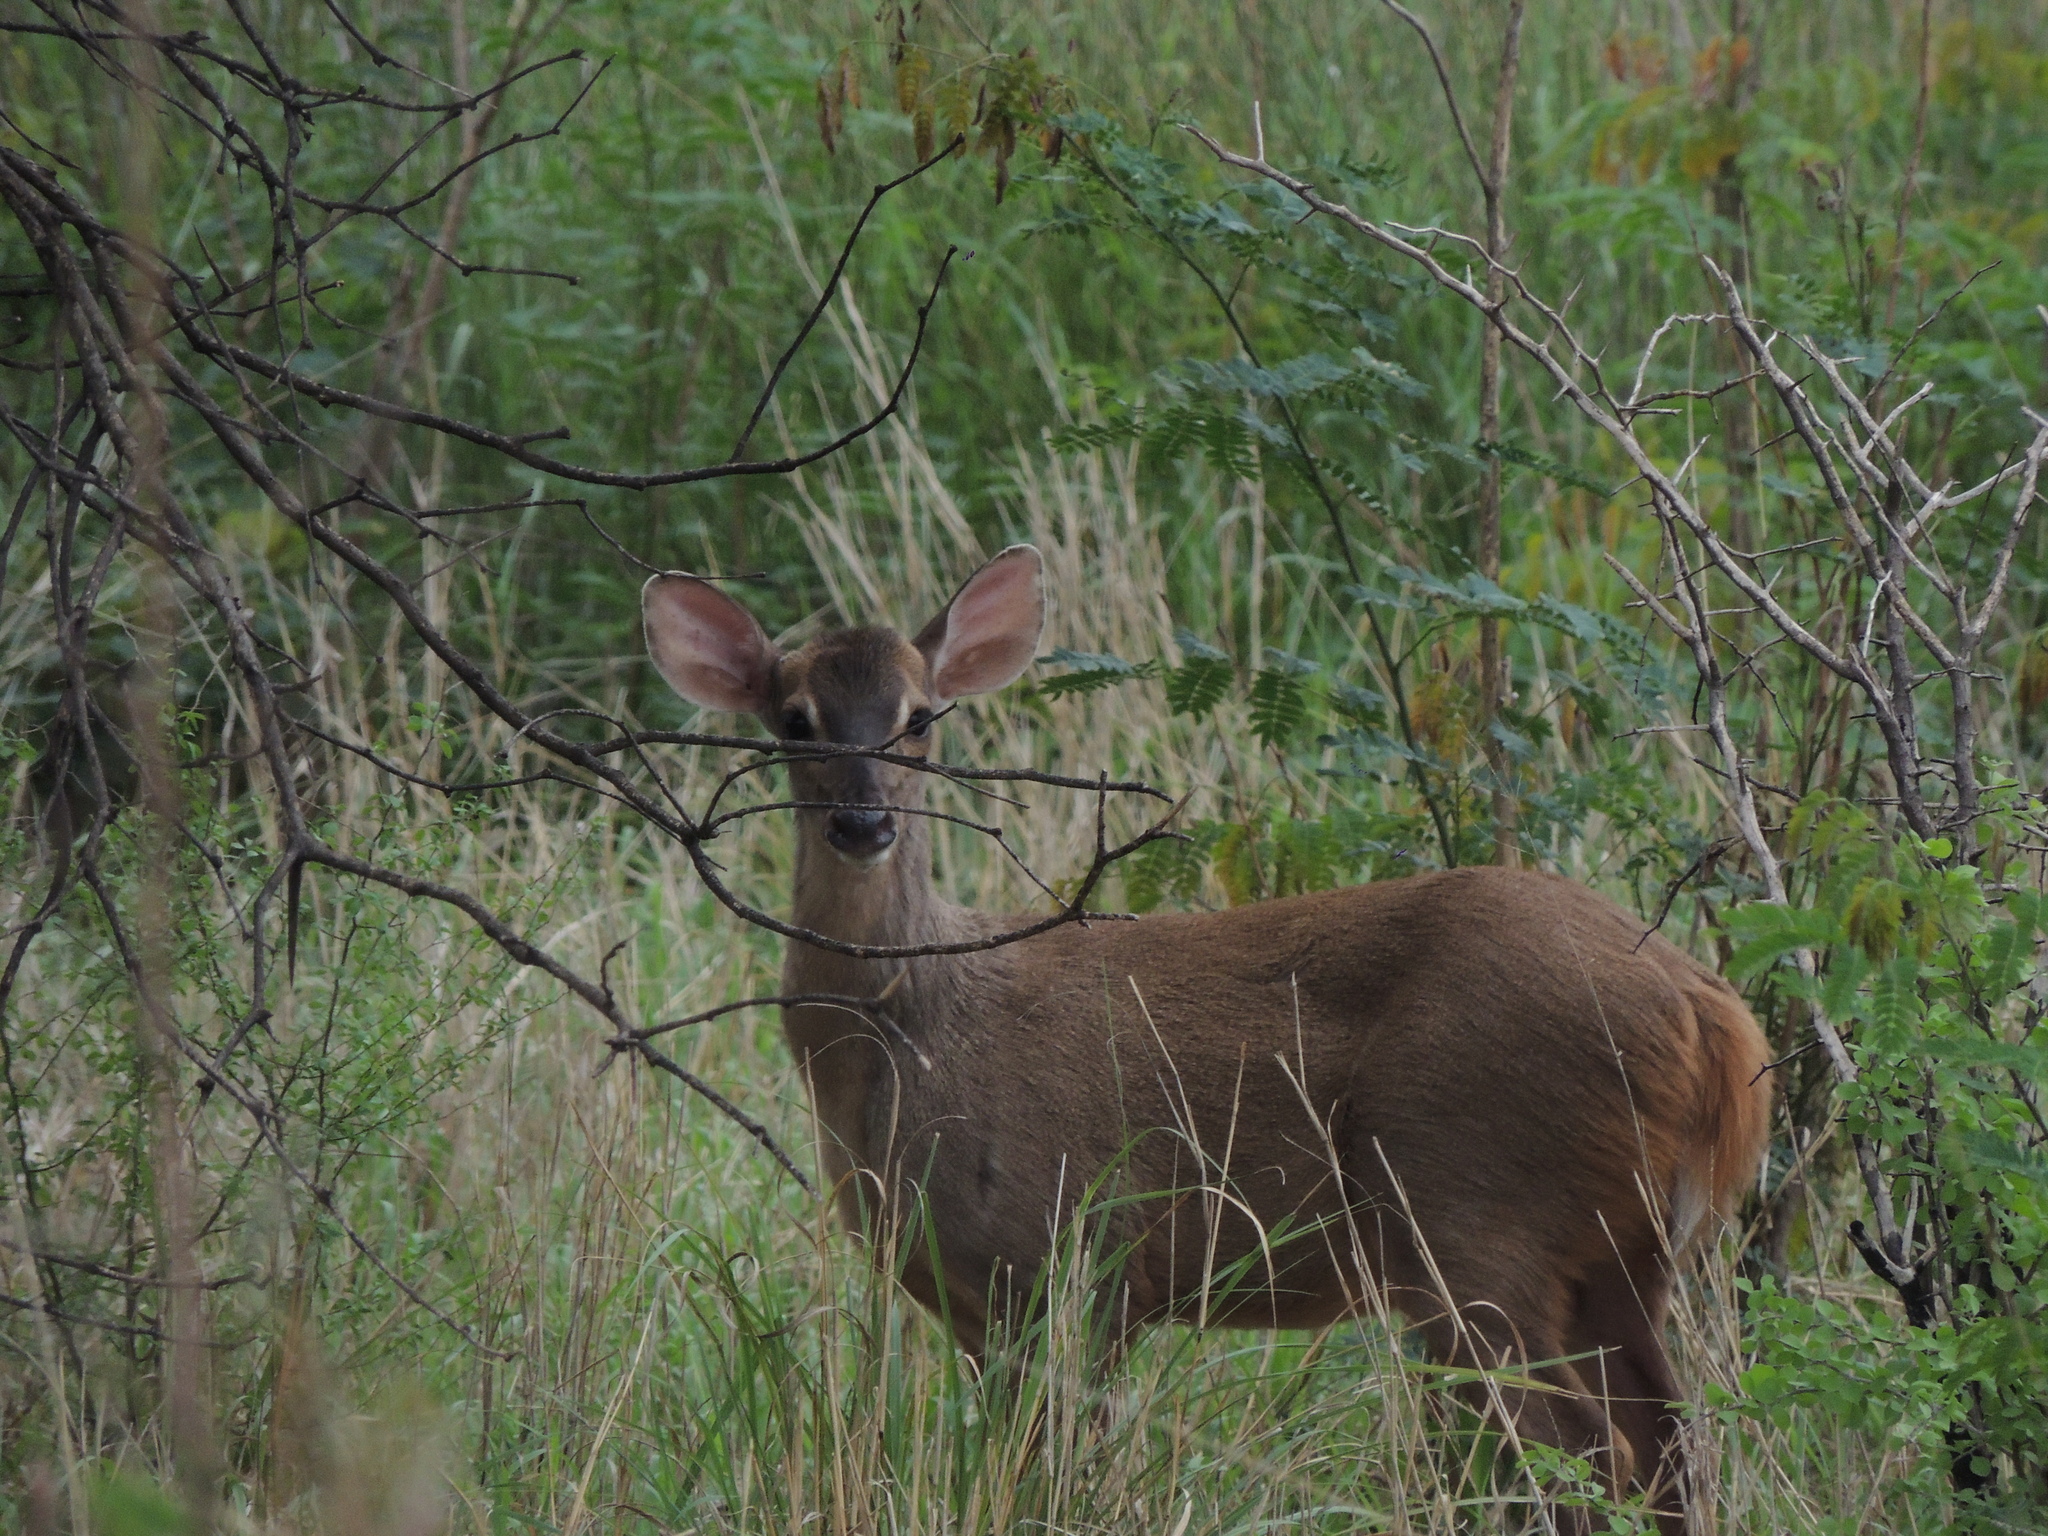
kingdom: Animalia
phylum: Chordata
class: Mammalia
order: Artiodactyla
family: Cervidae
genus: Mazama
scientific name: Mazama gouazoubira
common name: Gray brocket
